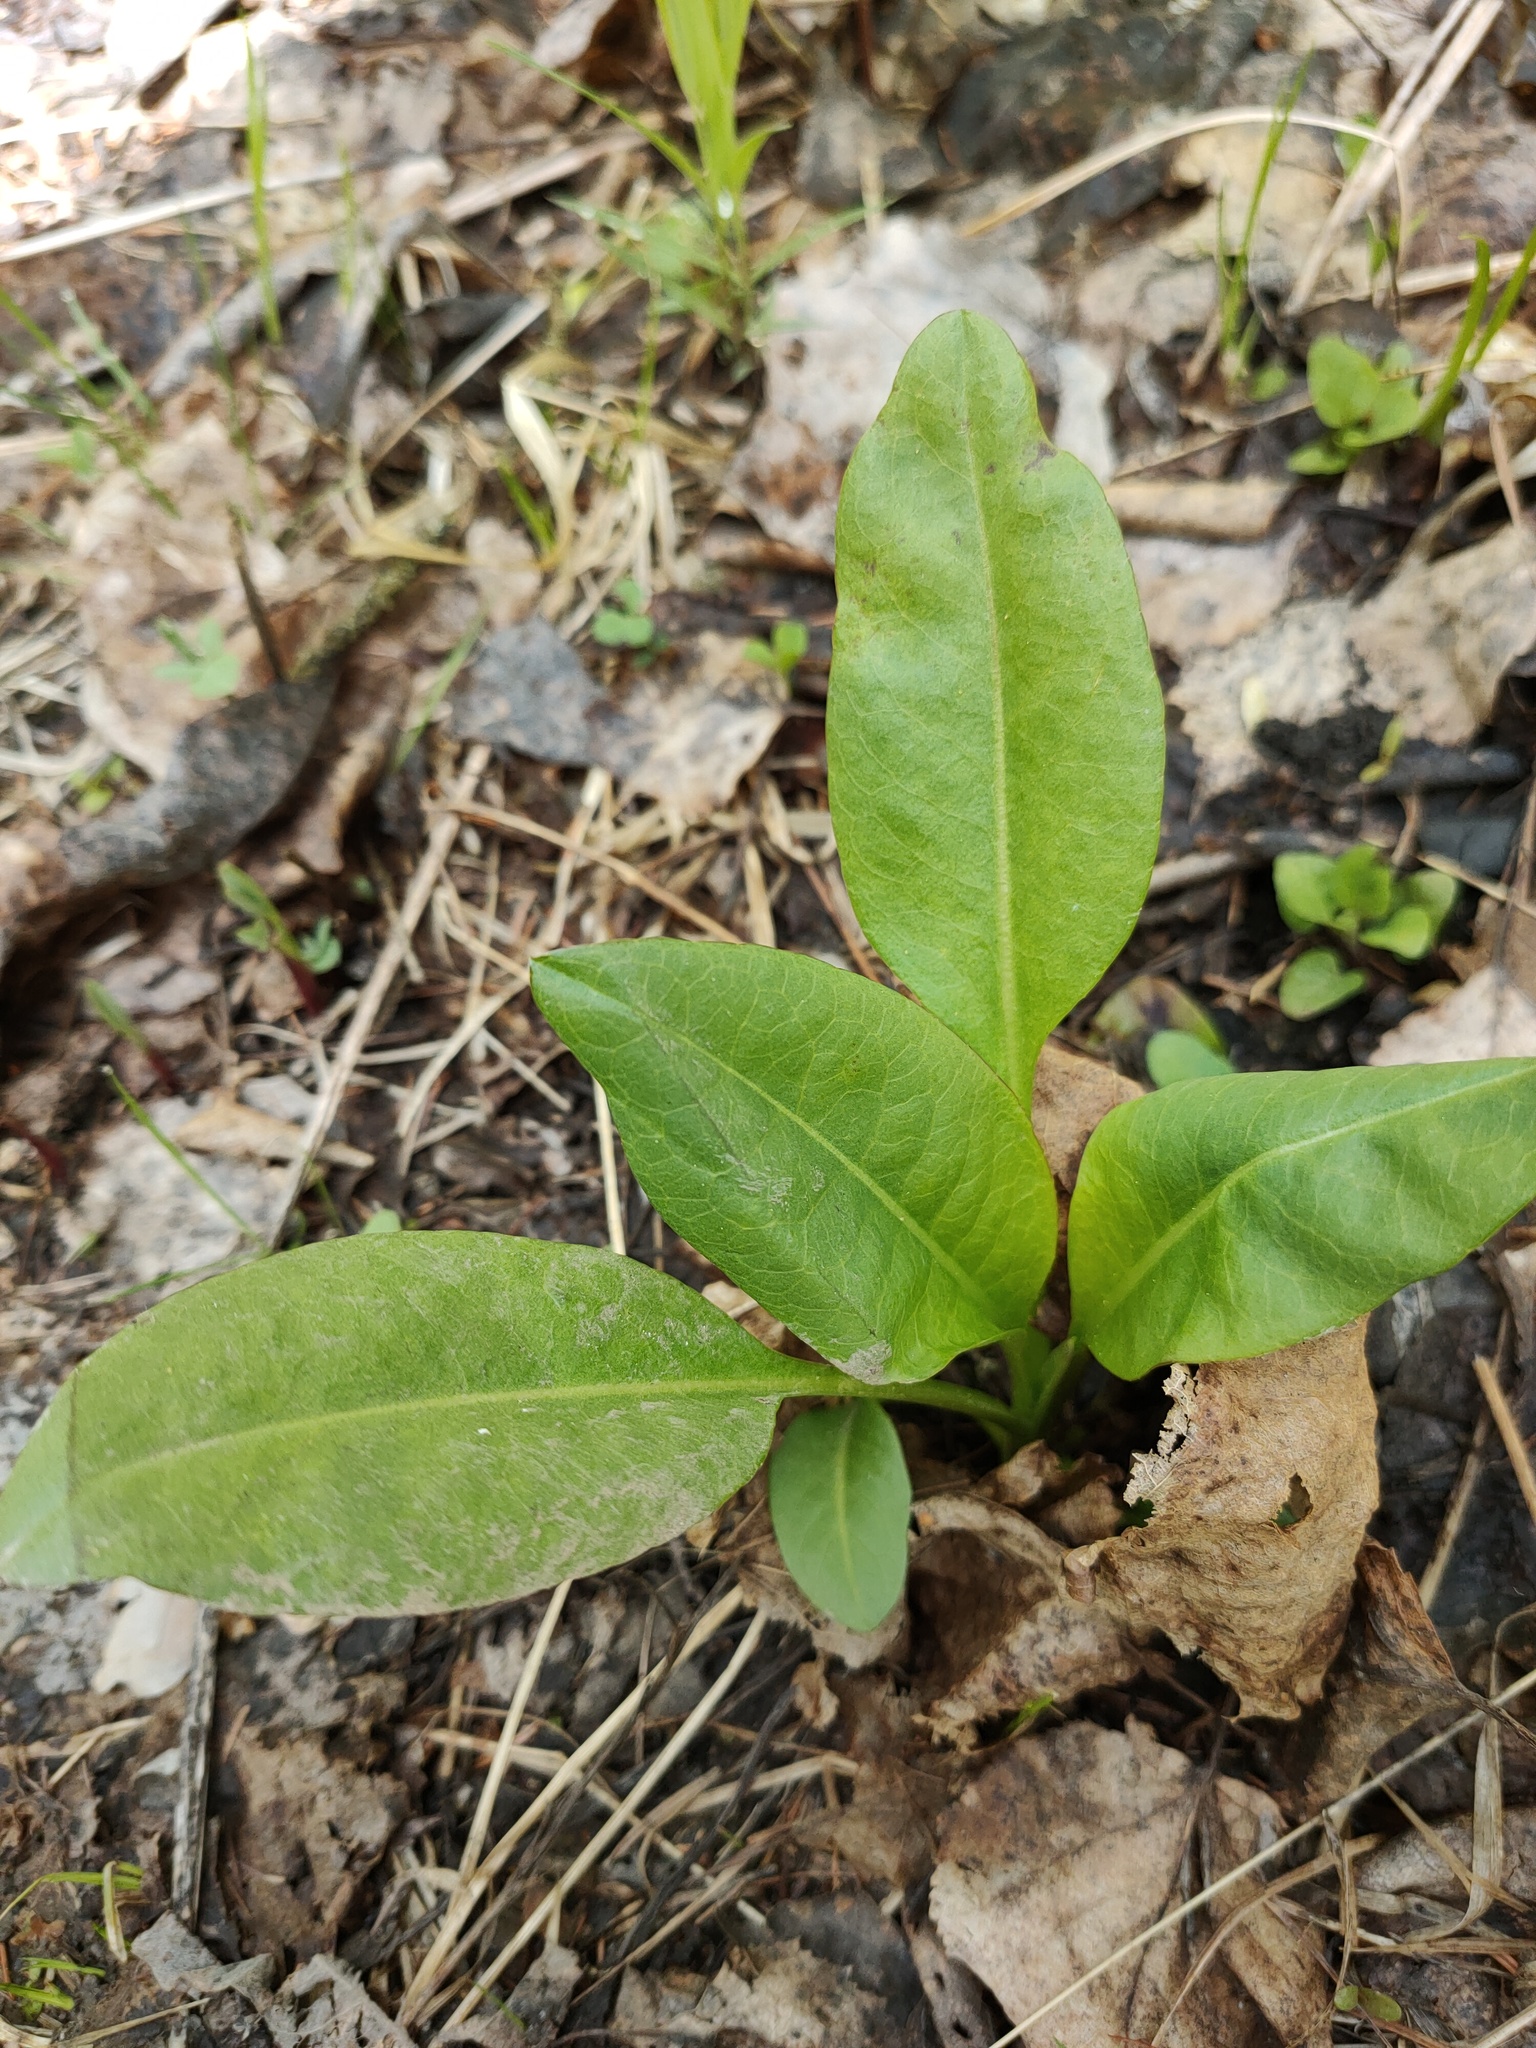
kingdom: Plantae
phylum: Tracheophyta
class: Magnoliopsida
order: Dipsacales
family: Caprifoliaceae
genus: Succisa
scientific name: Succisa pratensis
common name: Devil's-bit
